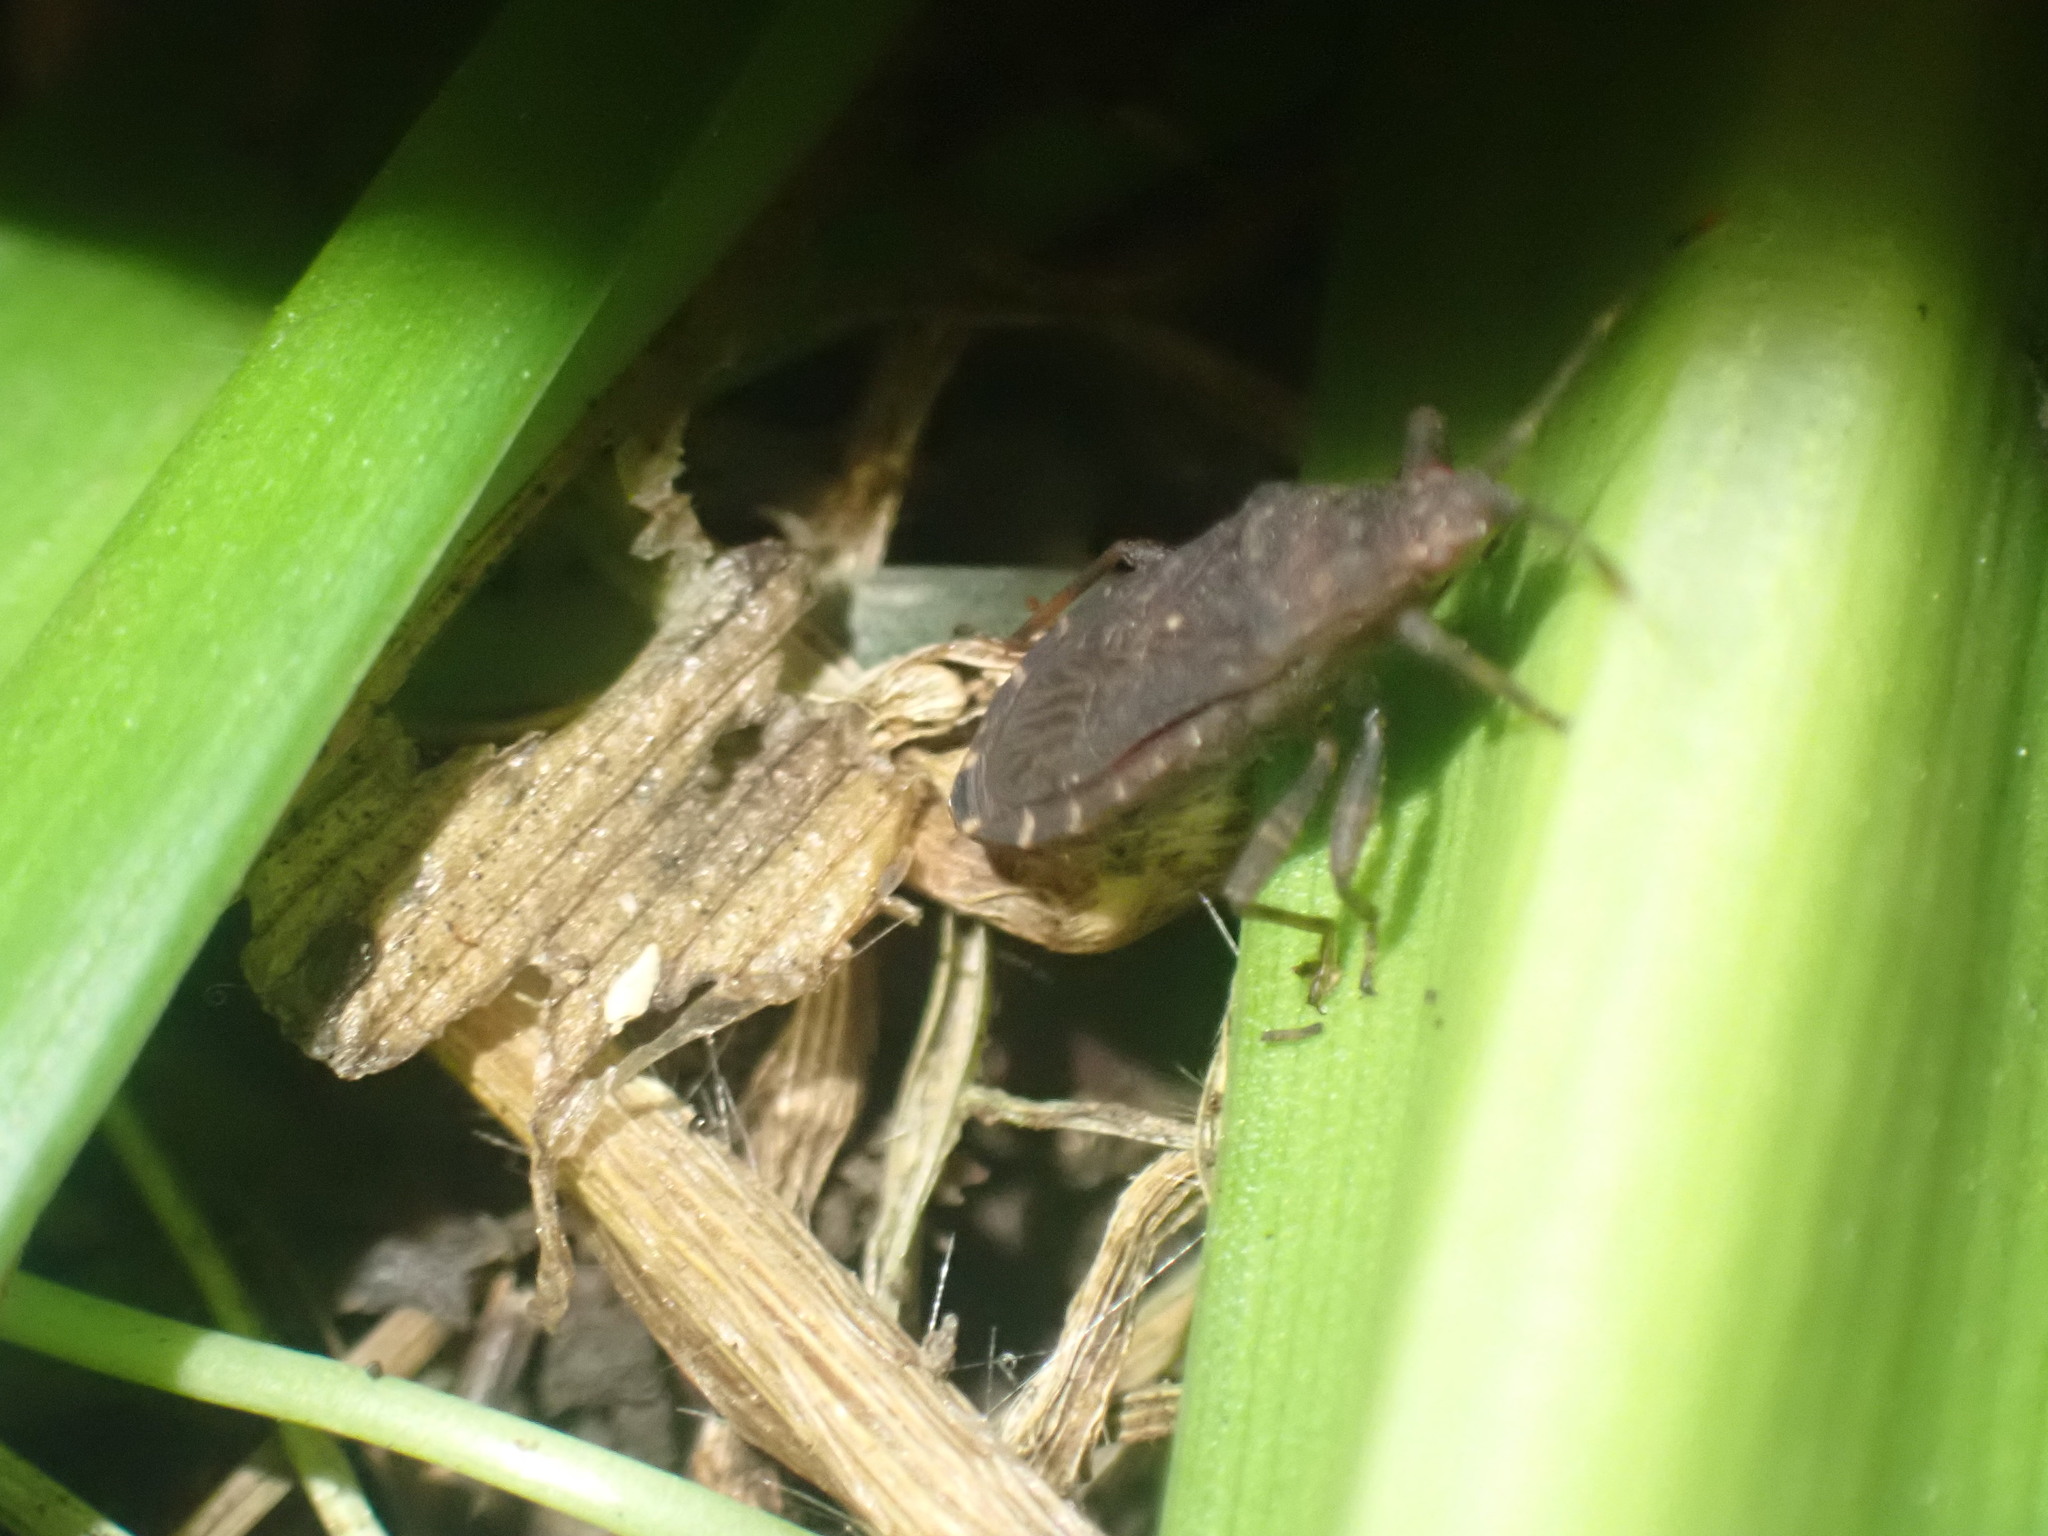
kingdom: Animalia
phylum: Arthropoda
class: Insecta
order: Hemiptera
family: Coreidae
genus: Acantholybas
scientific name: Acantholybas brunneus
